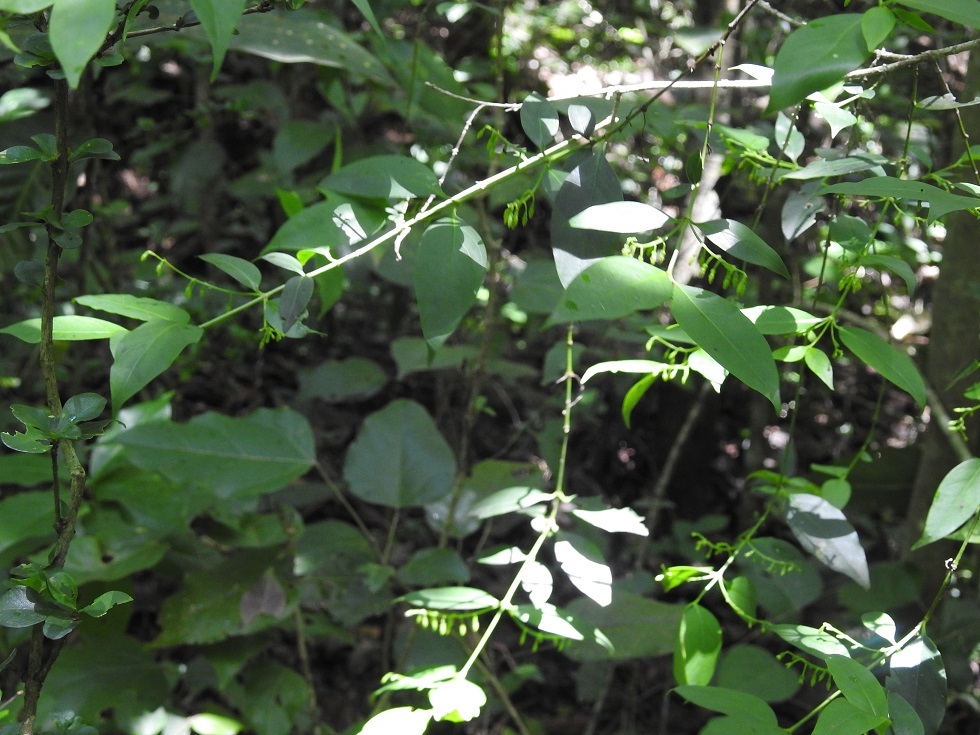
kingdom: Plantae
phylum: Tracheophyta
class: Magnoliopsida
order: Gentianales
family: Rubiaceae
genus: Chiococca
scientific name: Chiococca alba
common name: Snowberry
